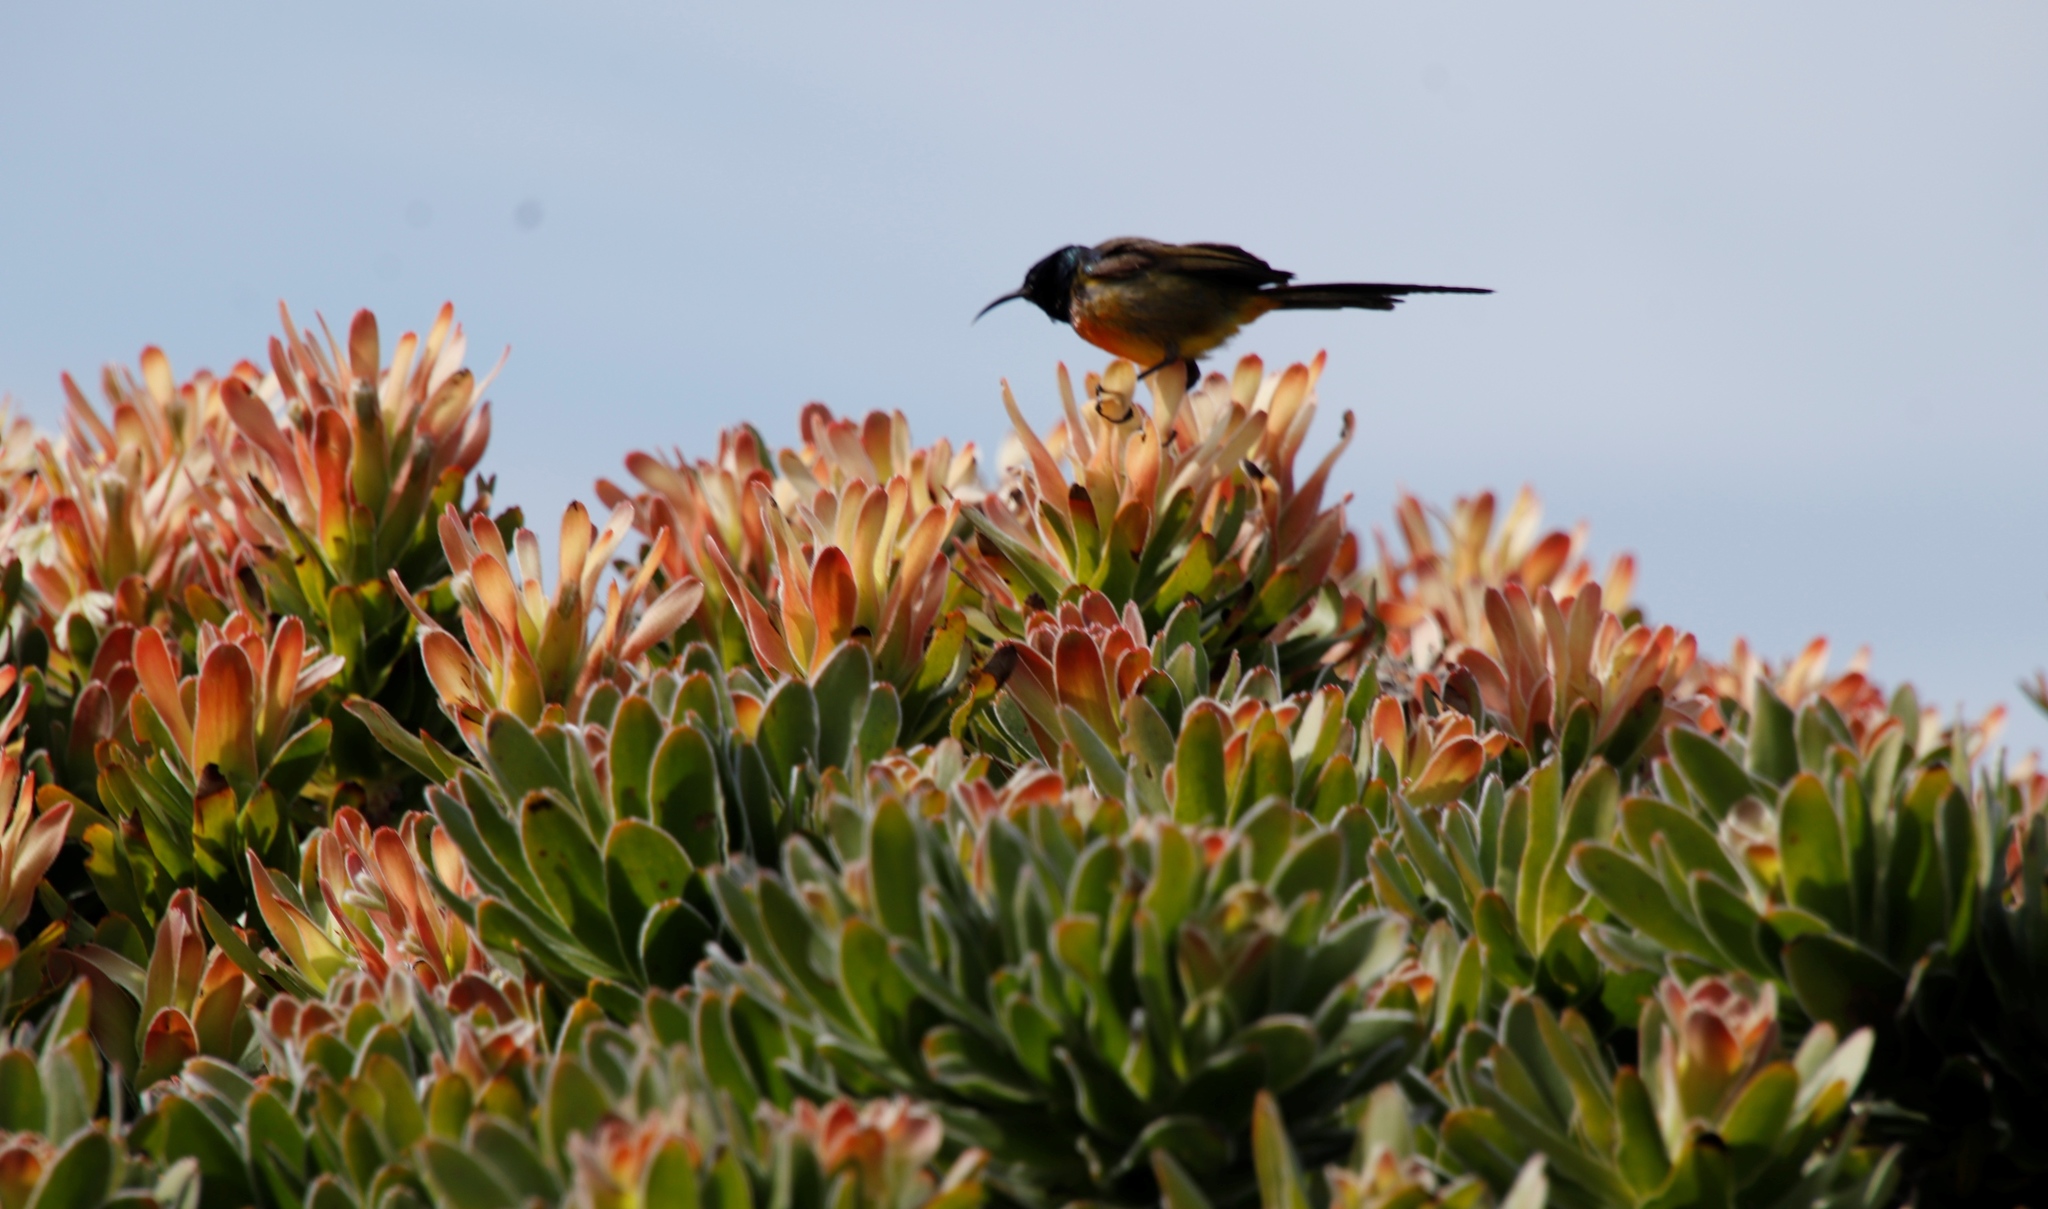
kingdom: Plantae
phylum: Tracheophyta
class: Magnoliopsida
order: Proteales
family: Proteaceae
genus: Mimetes
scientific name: Mimetes fimbriifolius
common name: Fringed bottlebrush
